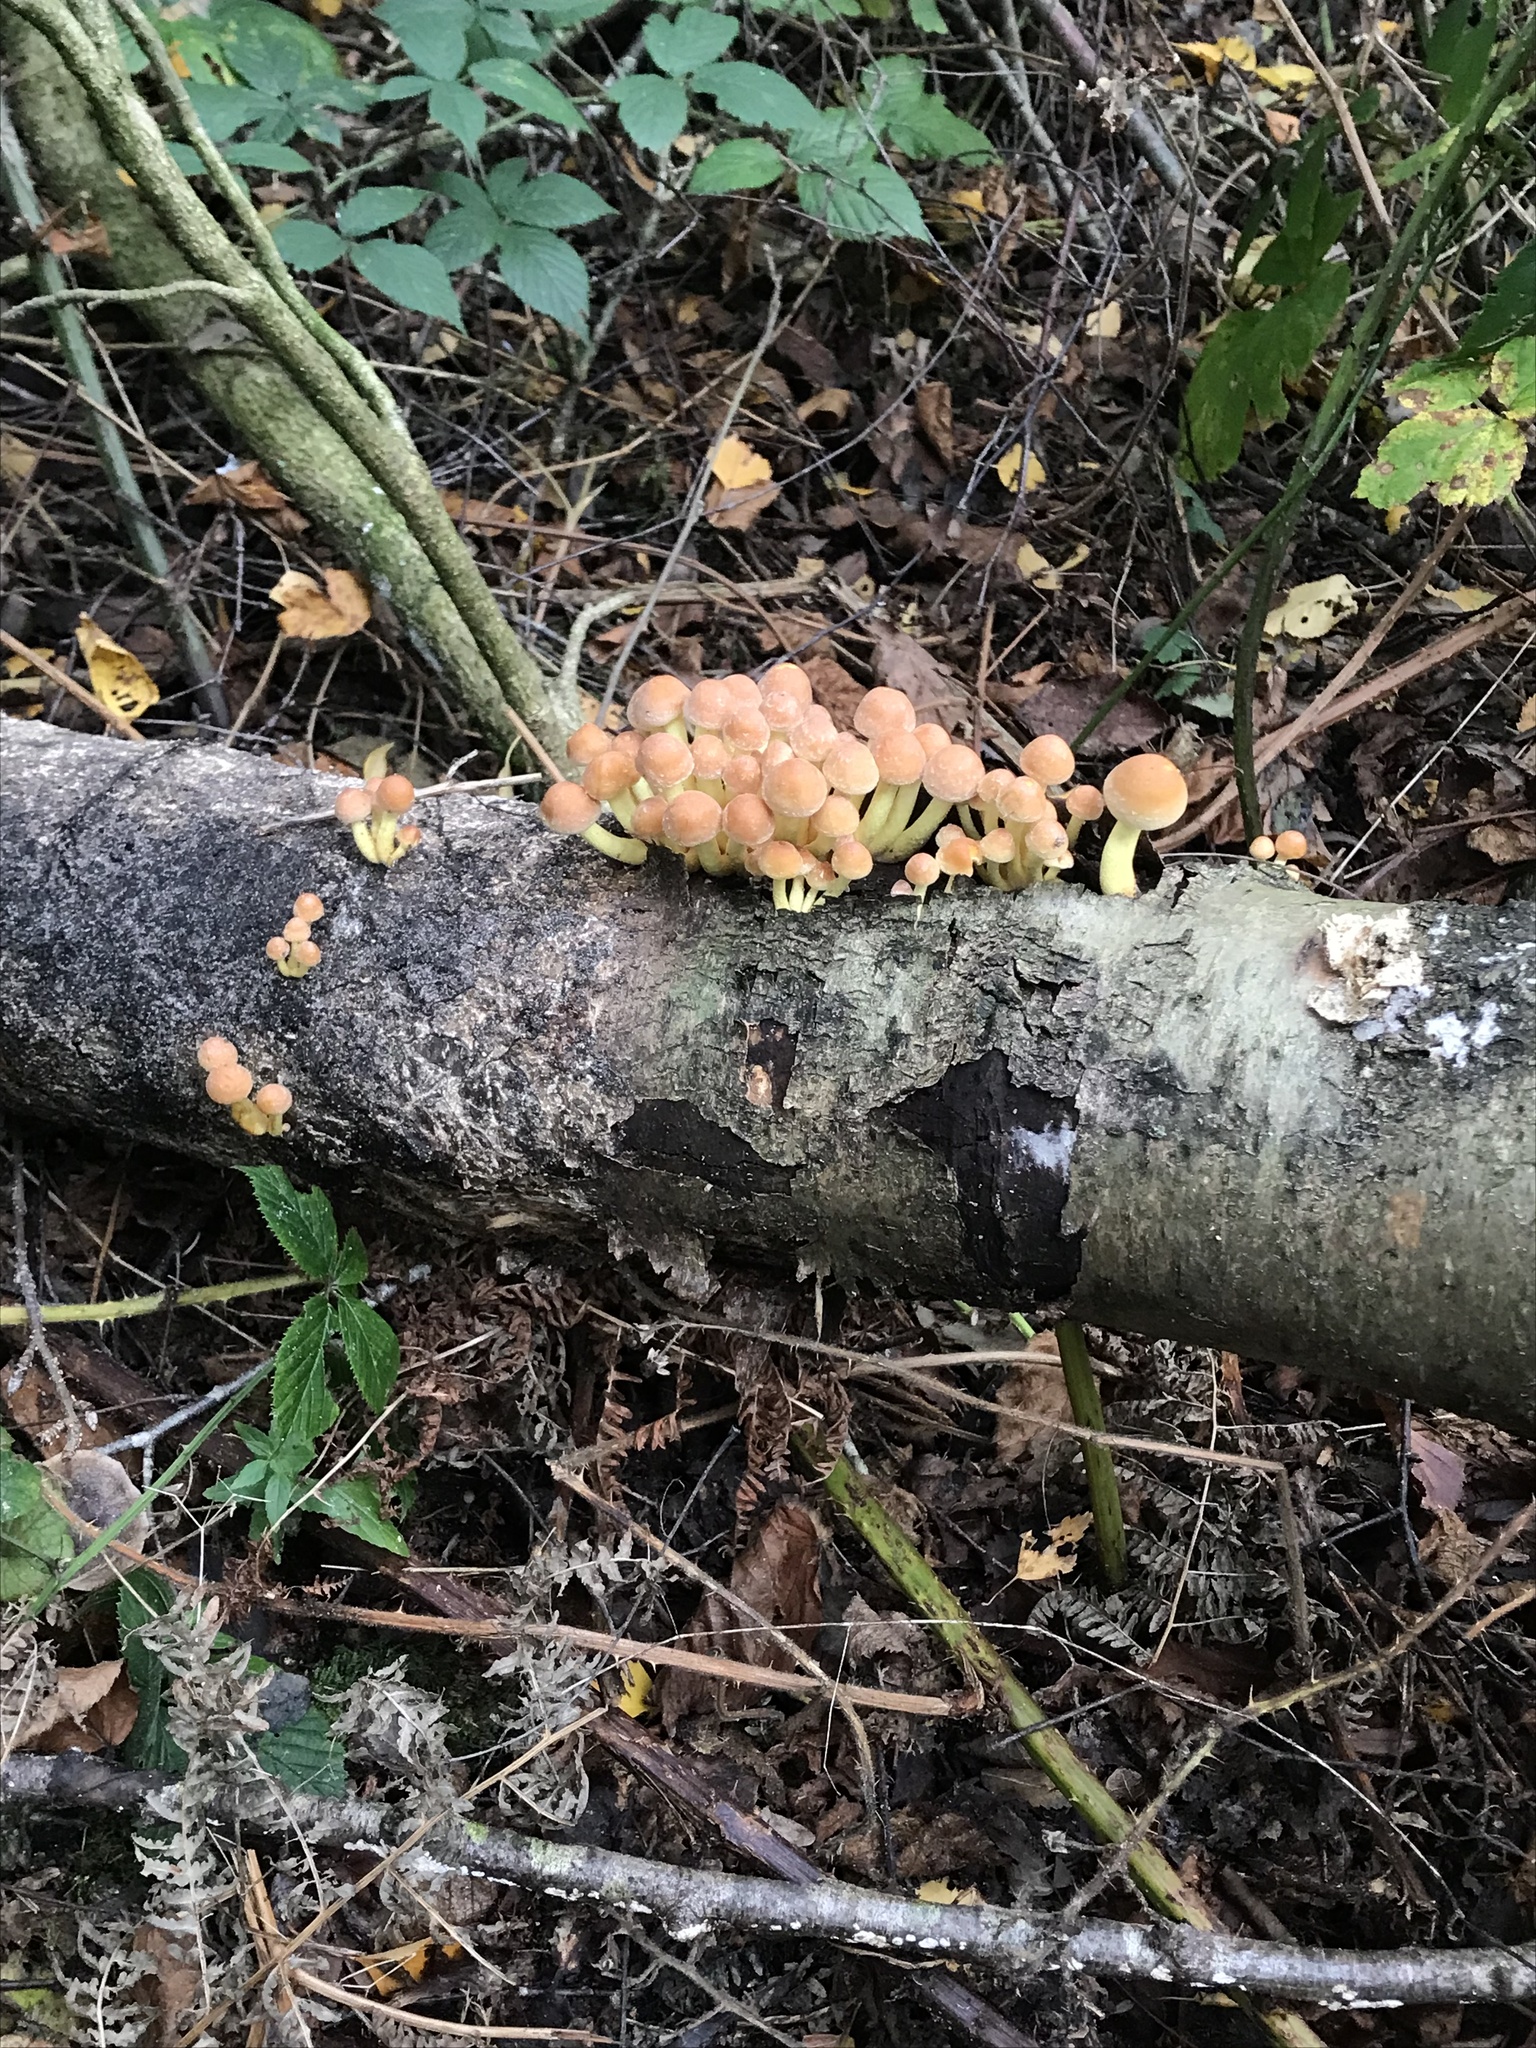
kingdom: Fungi
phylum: Basidiomycota
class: Agaricomycetes
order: Agaricales
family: Strophariaceae
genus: Hypholoma
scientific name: Hypholoma fasciculare
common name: Sulphur tuft
